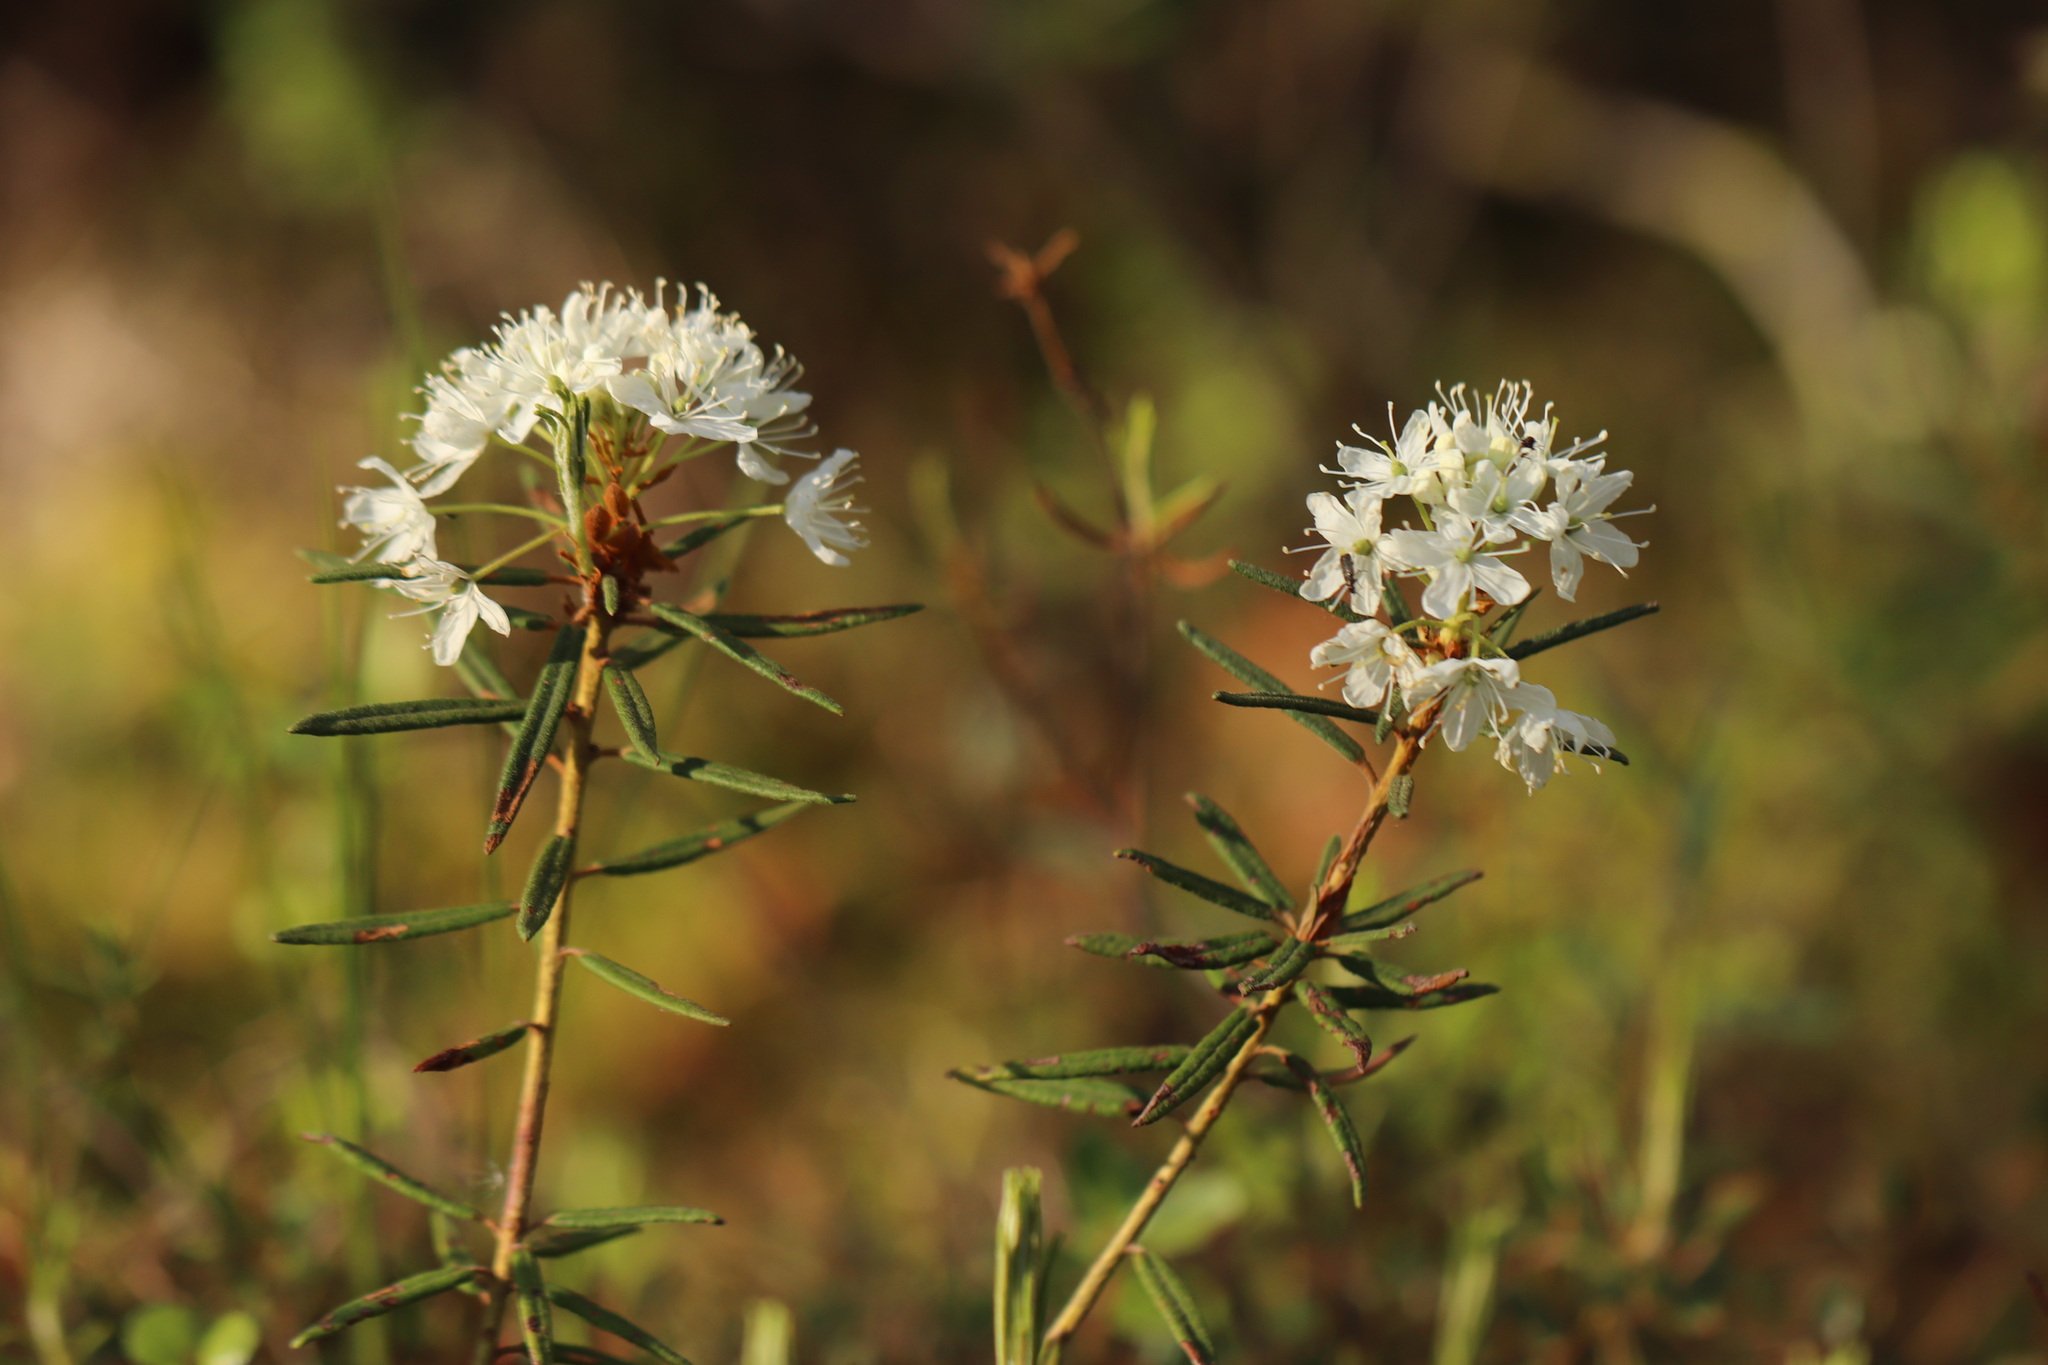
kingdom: Plantae
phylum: Tracheophyta
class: Magnoliopsida
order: Ericales
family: Ericaceae
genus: Rhododendron
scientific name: Rhododendron tomentosum
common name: Marsh labrador tea
